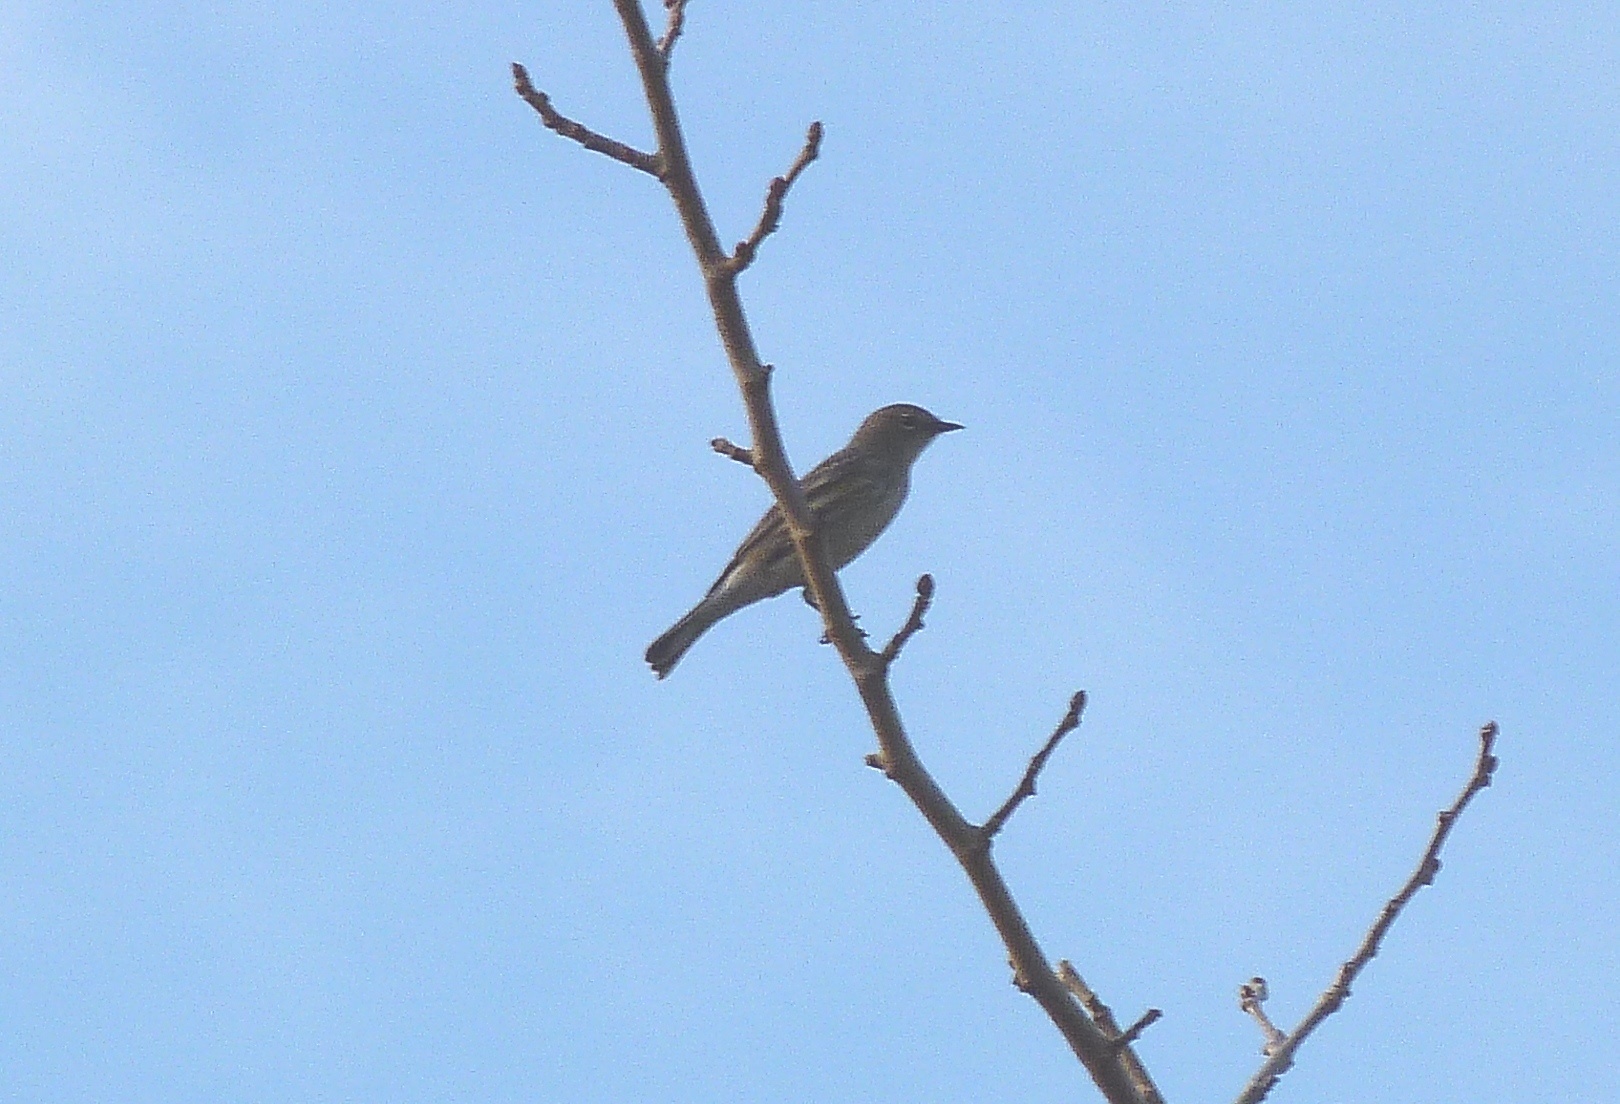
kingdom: Animalia
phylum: Chordata
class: Aves
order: Passeriformes
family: Parulidae
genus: Setophaga
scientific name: Setophaga coronata
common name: Myrtle warbler
